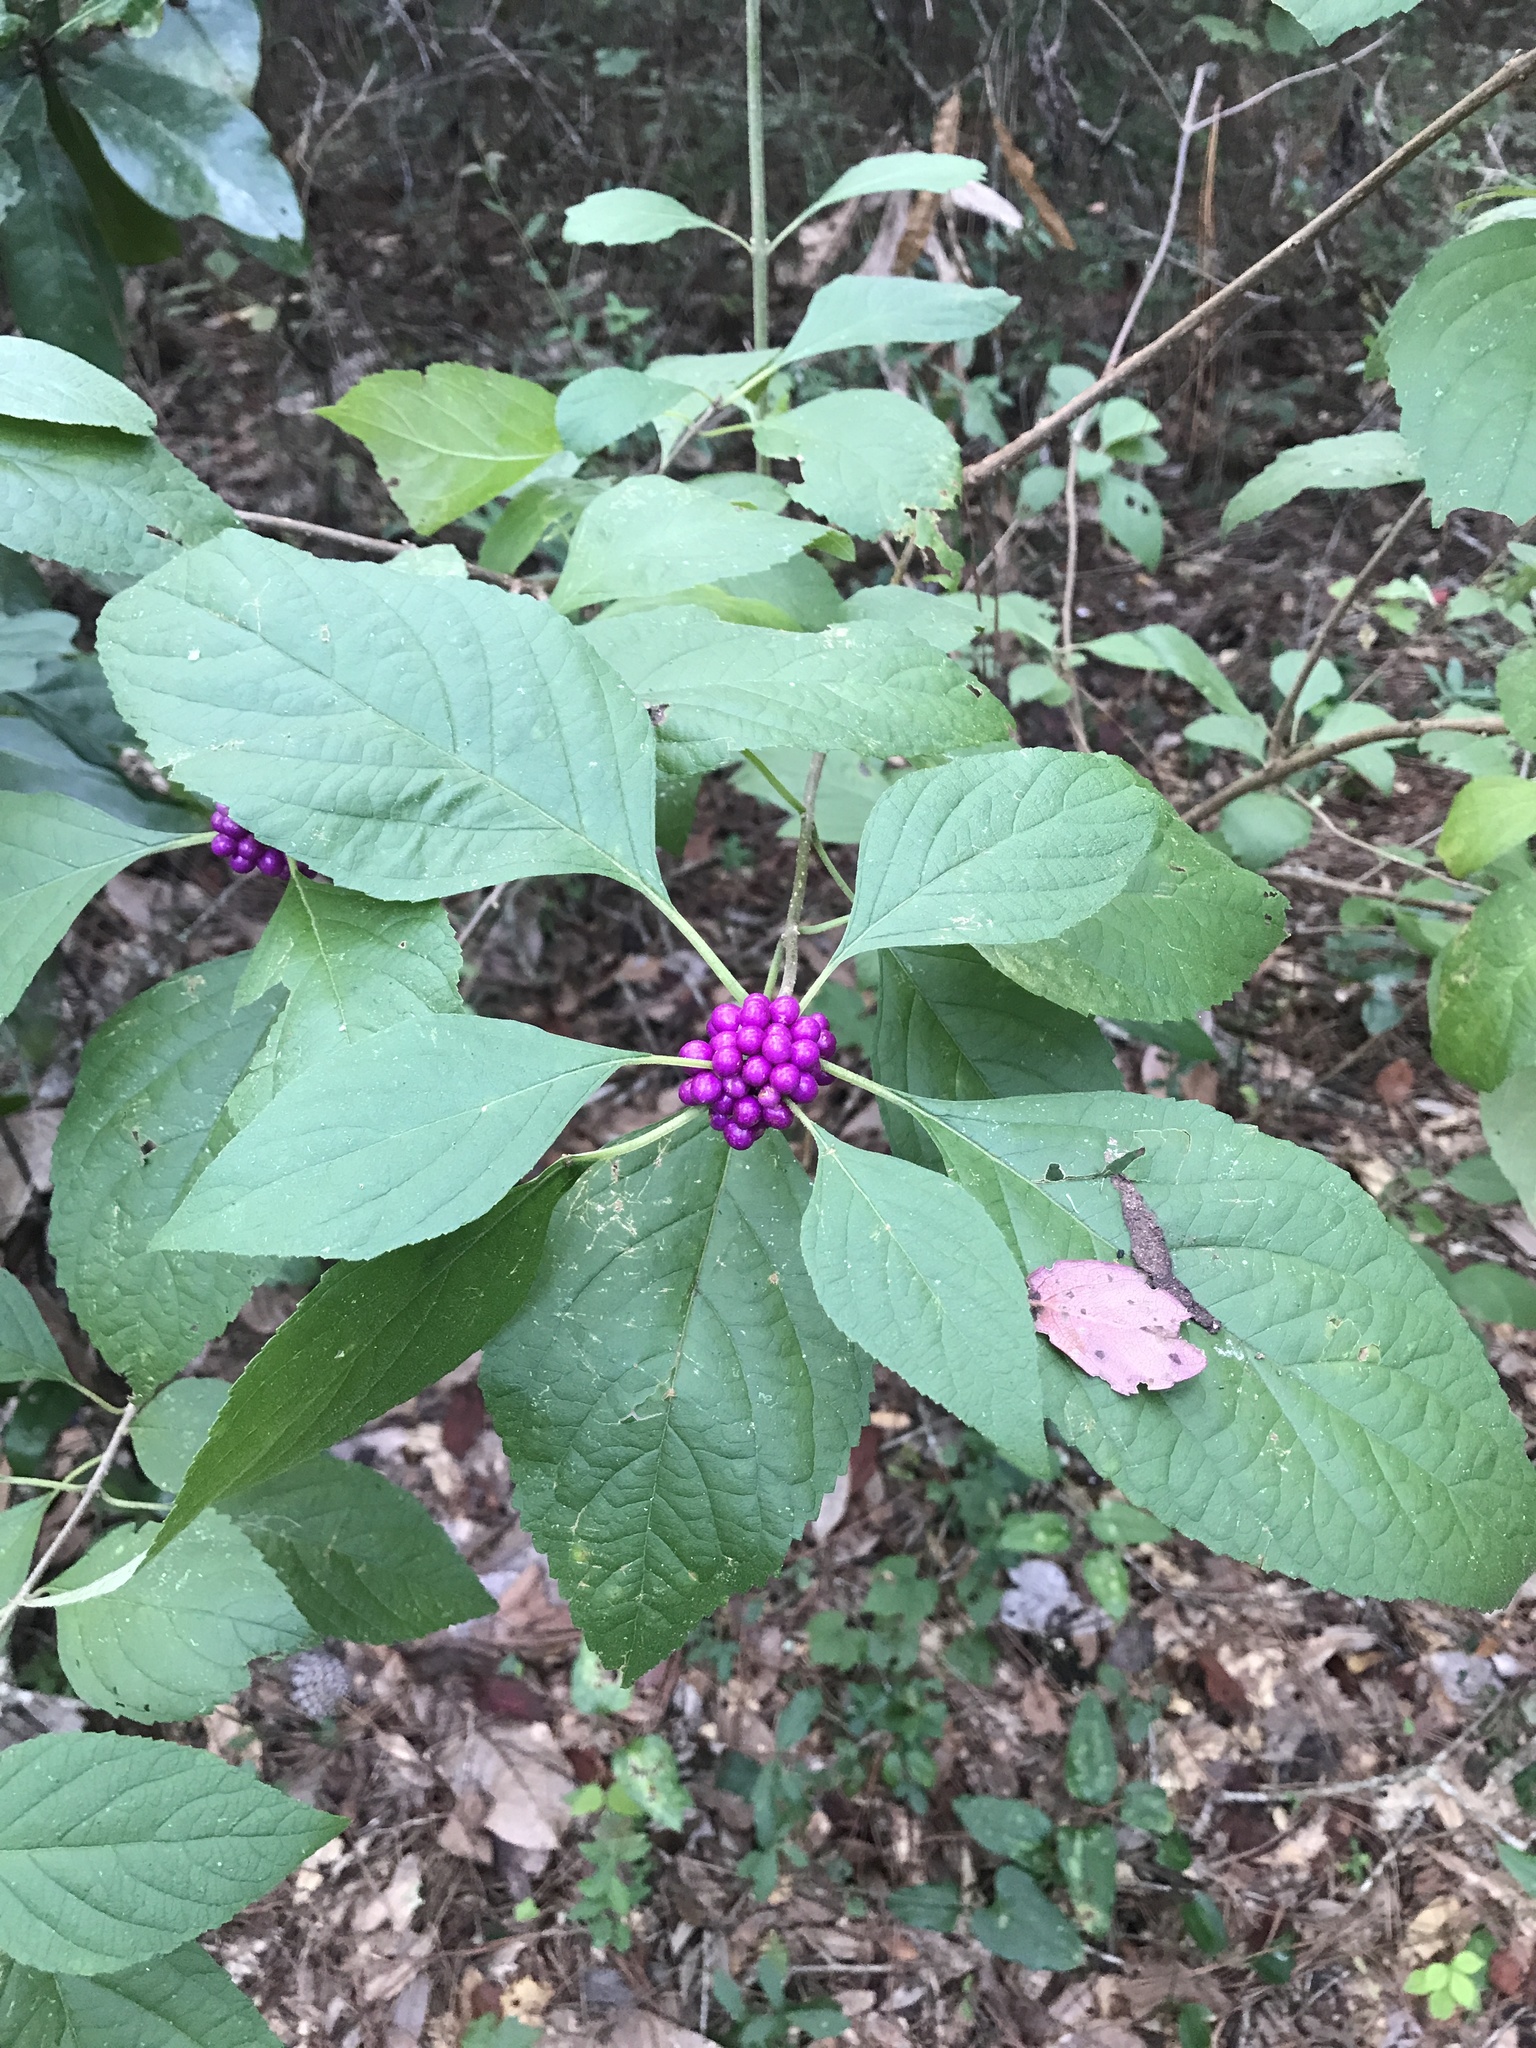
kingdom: Plantae
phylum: Tracheophyta
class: Magnoliopsida
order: Lamiales
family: Lamiaceae
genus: Callicarpa
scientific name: Callicarpa americana
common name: American beautyberry
